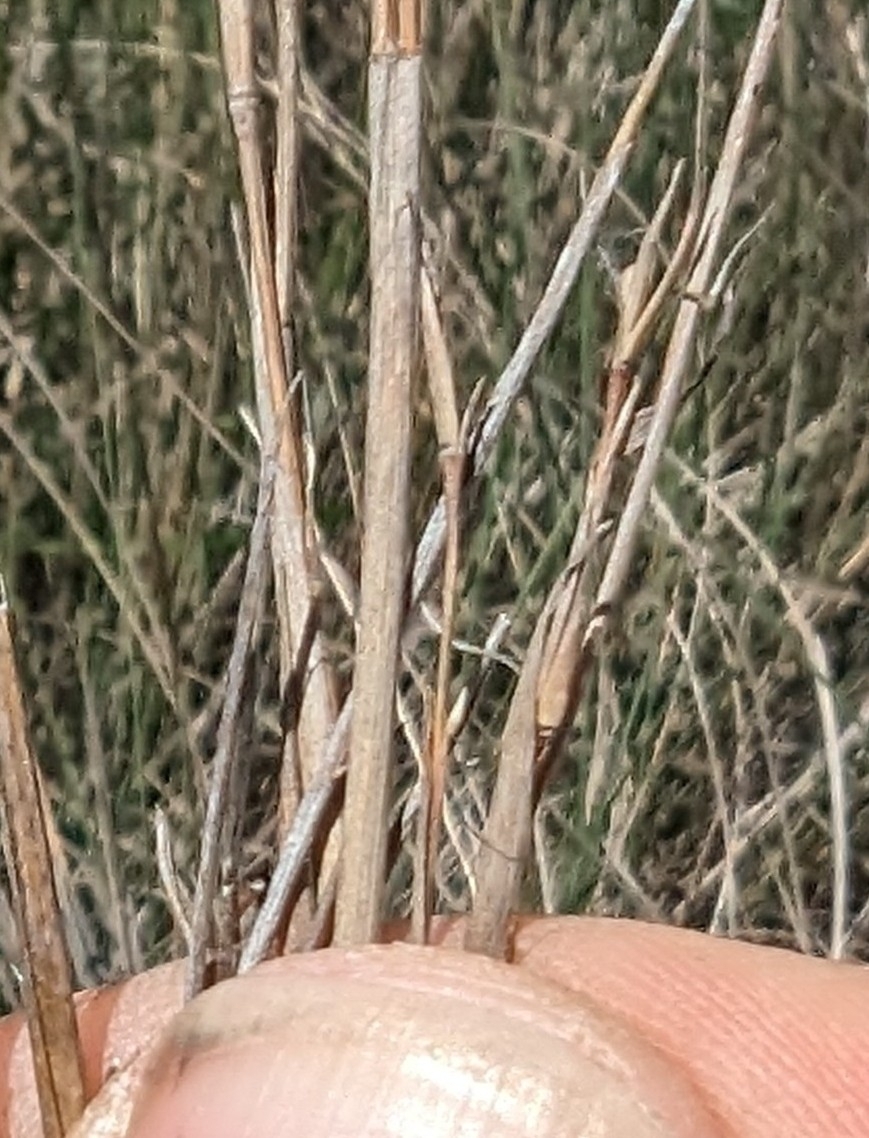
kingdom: Plantae
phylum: Tracheophyta
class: Liliopsida
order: Poales
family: Poaceae
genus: Schizachyrium
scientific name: Schizachyrium scoparium
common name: Little bluestem
